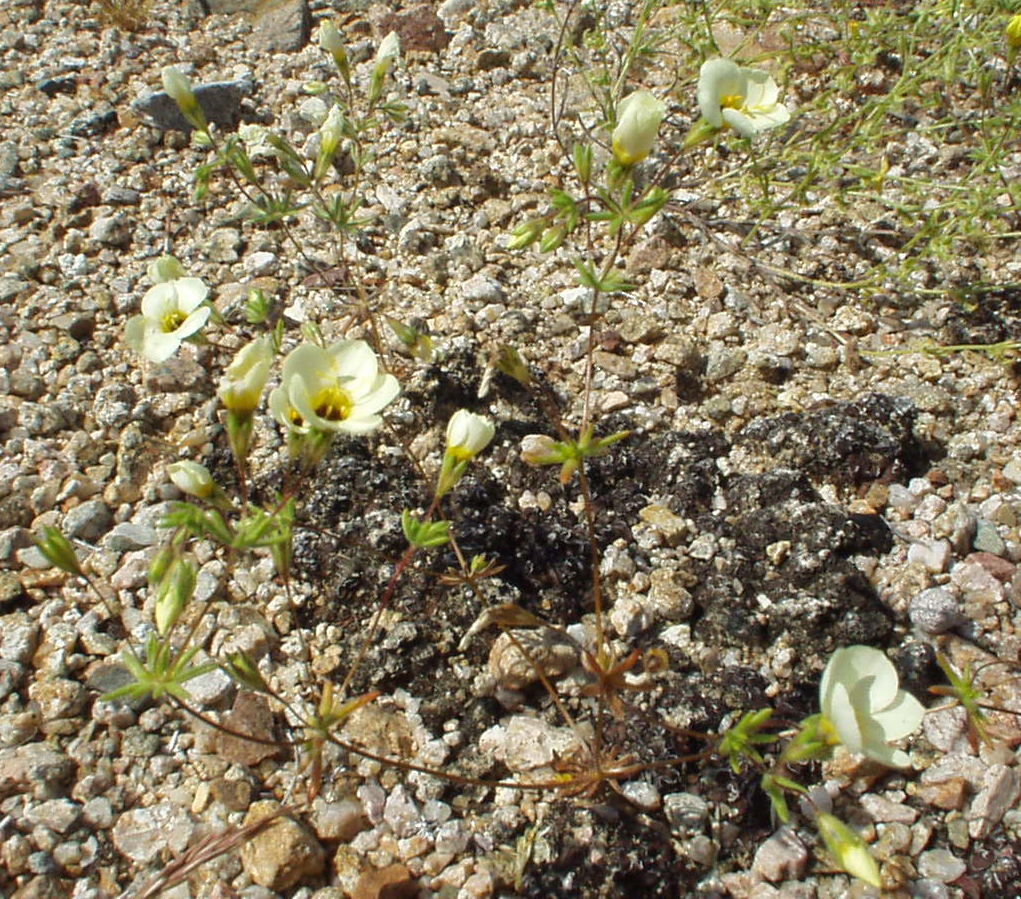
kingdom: Plantae
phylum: Tracheophyta
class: Magnoliopsida
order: Ericales
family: Polemoniaceae
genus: Leptosiphon
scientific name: Leptosiphon chrysanthus
